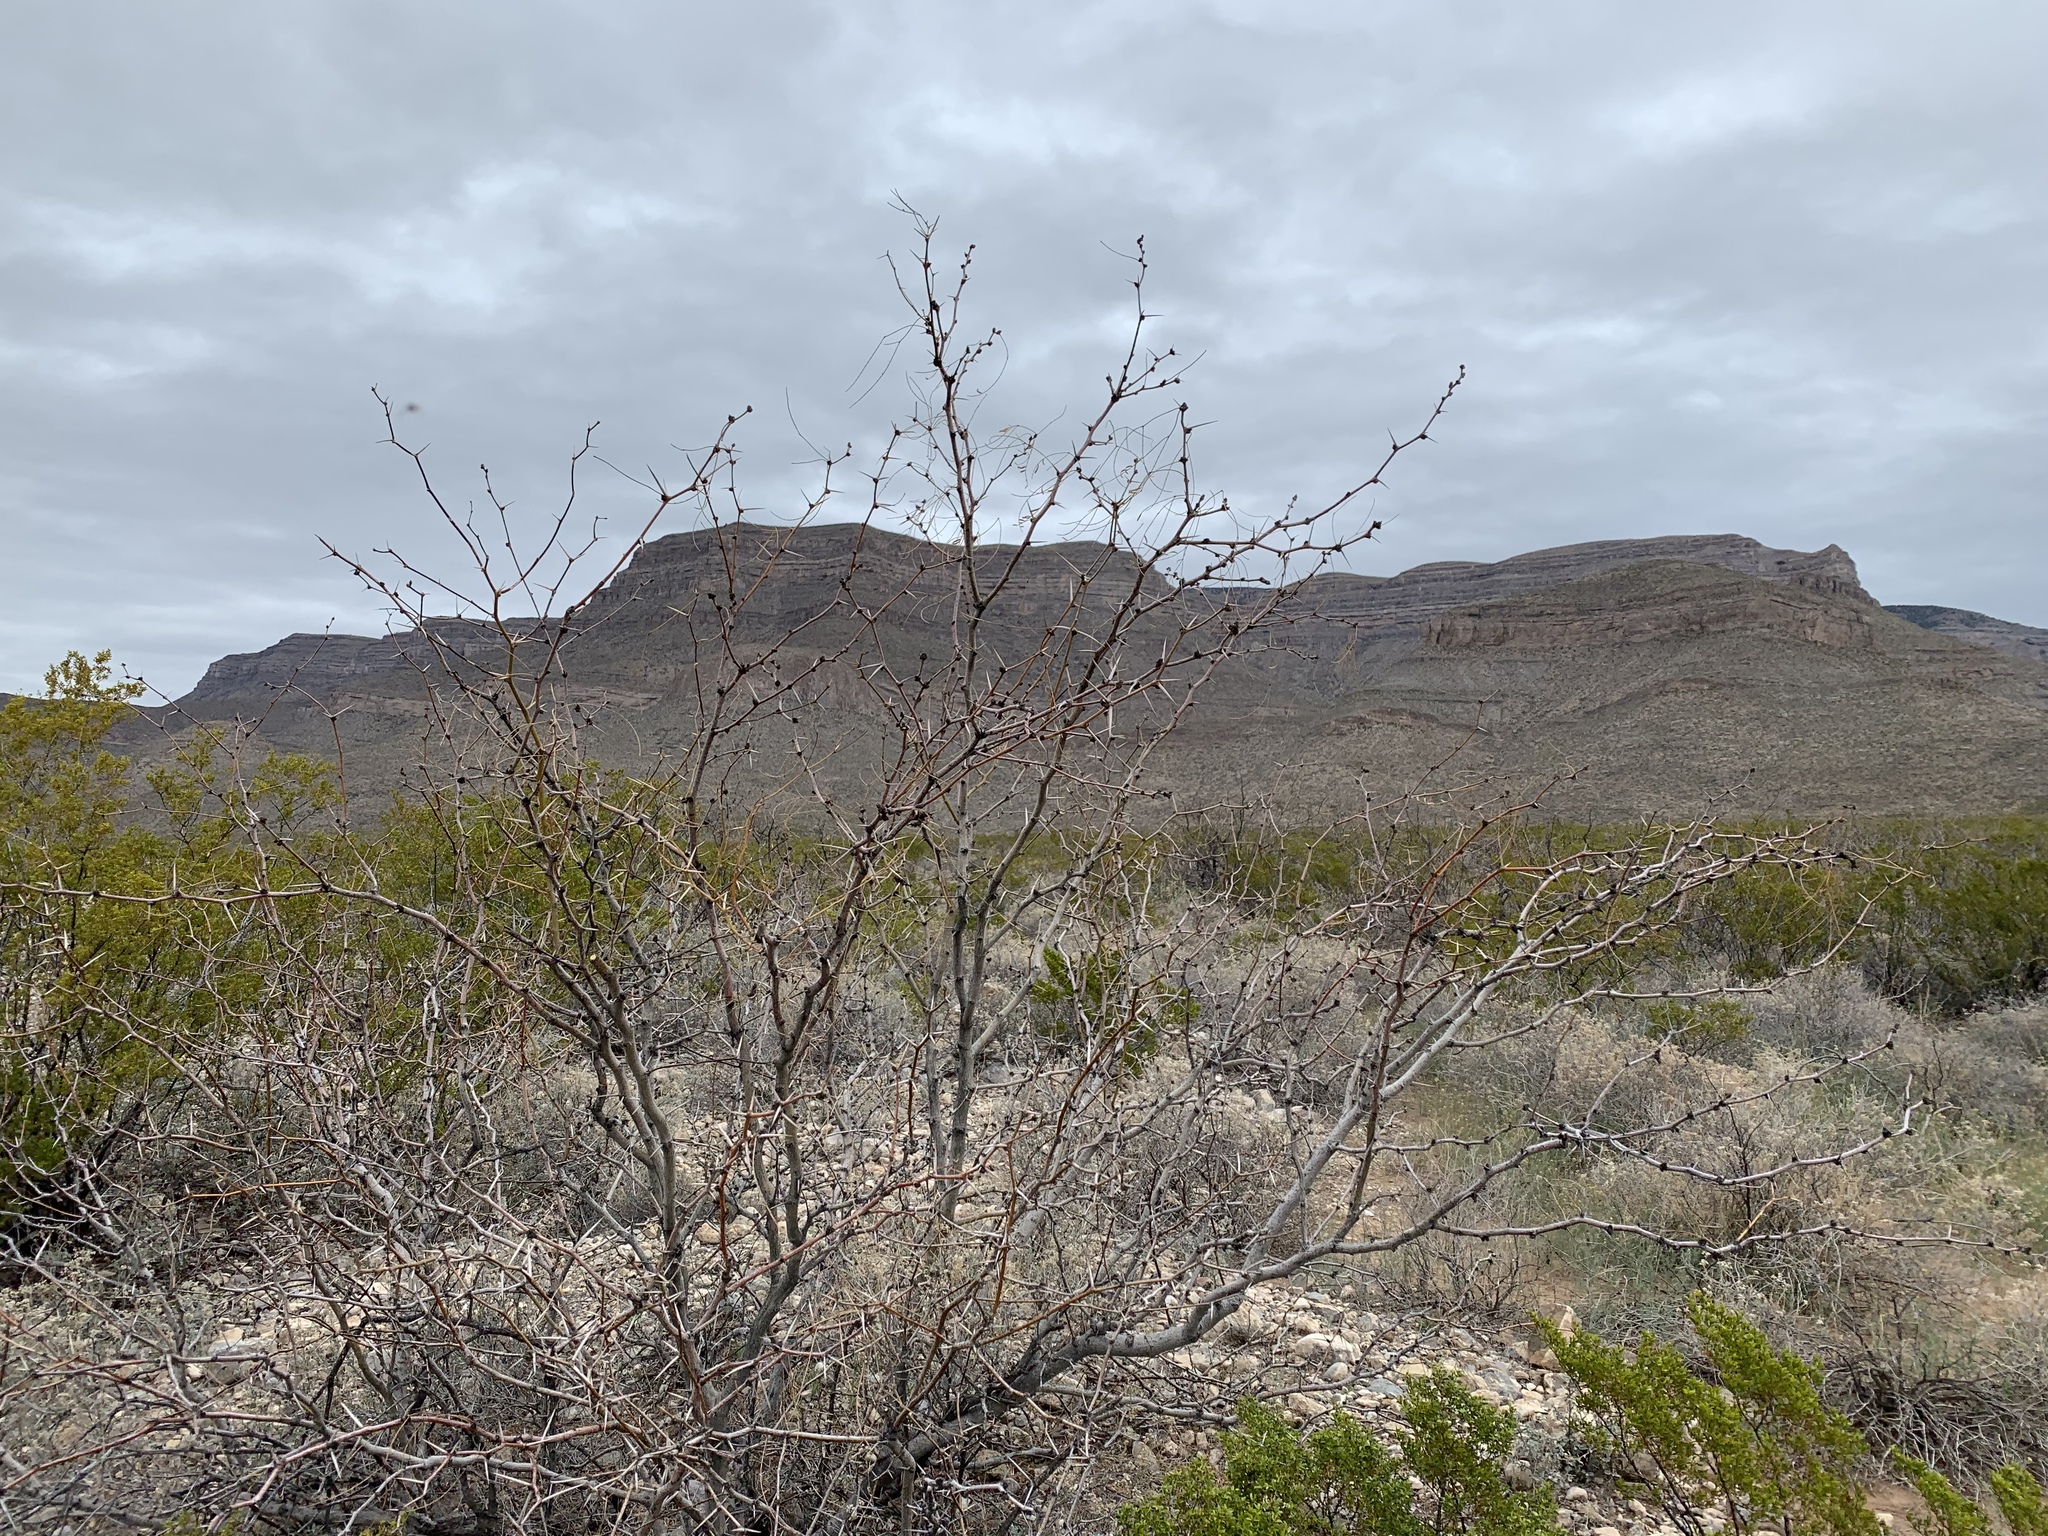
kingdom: Plantae
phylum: Tracheophyta
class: Magnoliopsida
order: Fabales
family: Fabaceae
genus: Prosopis
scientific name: Prosopis glandulosa
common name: Honey mesquite
